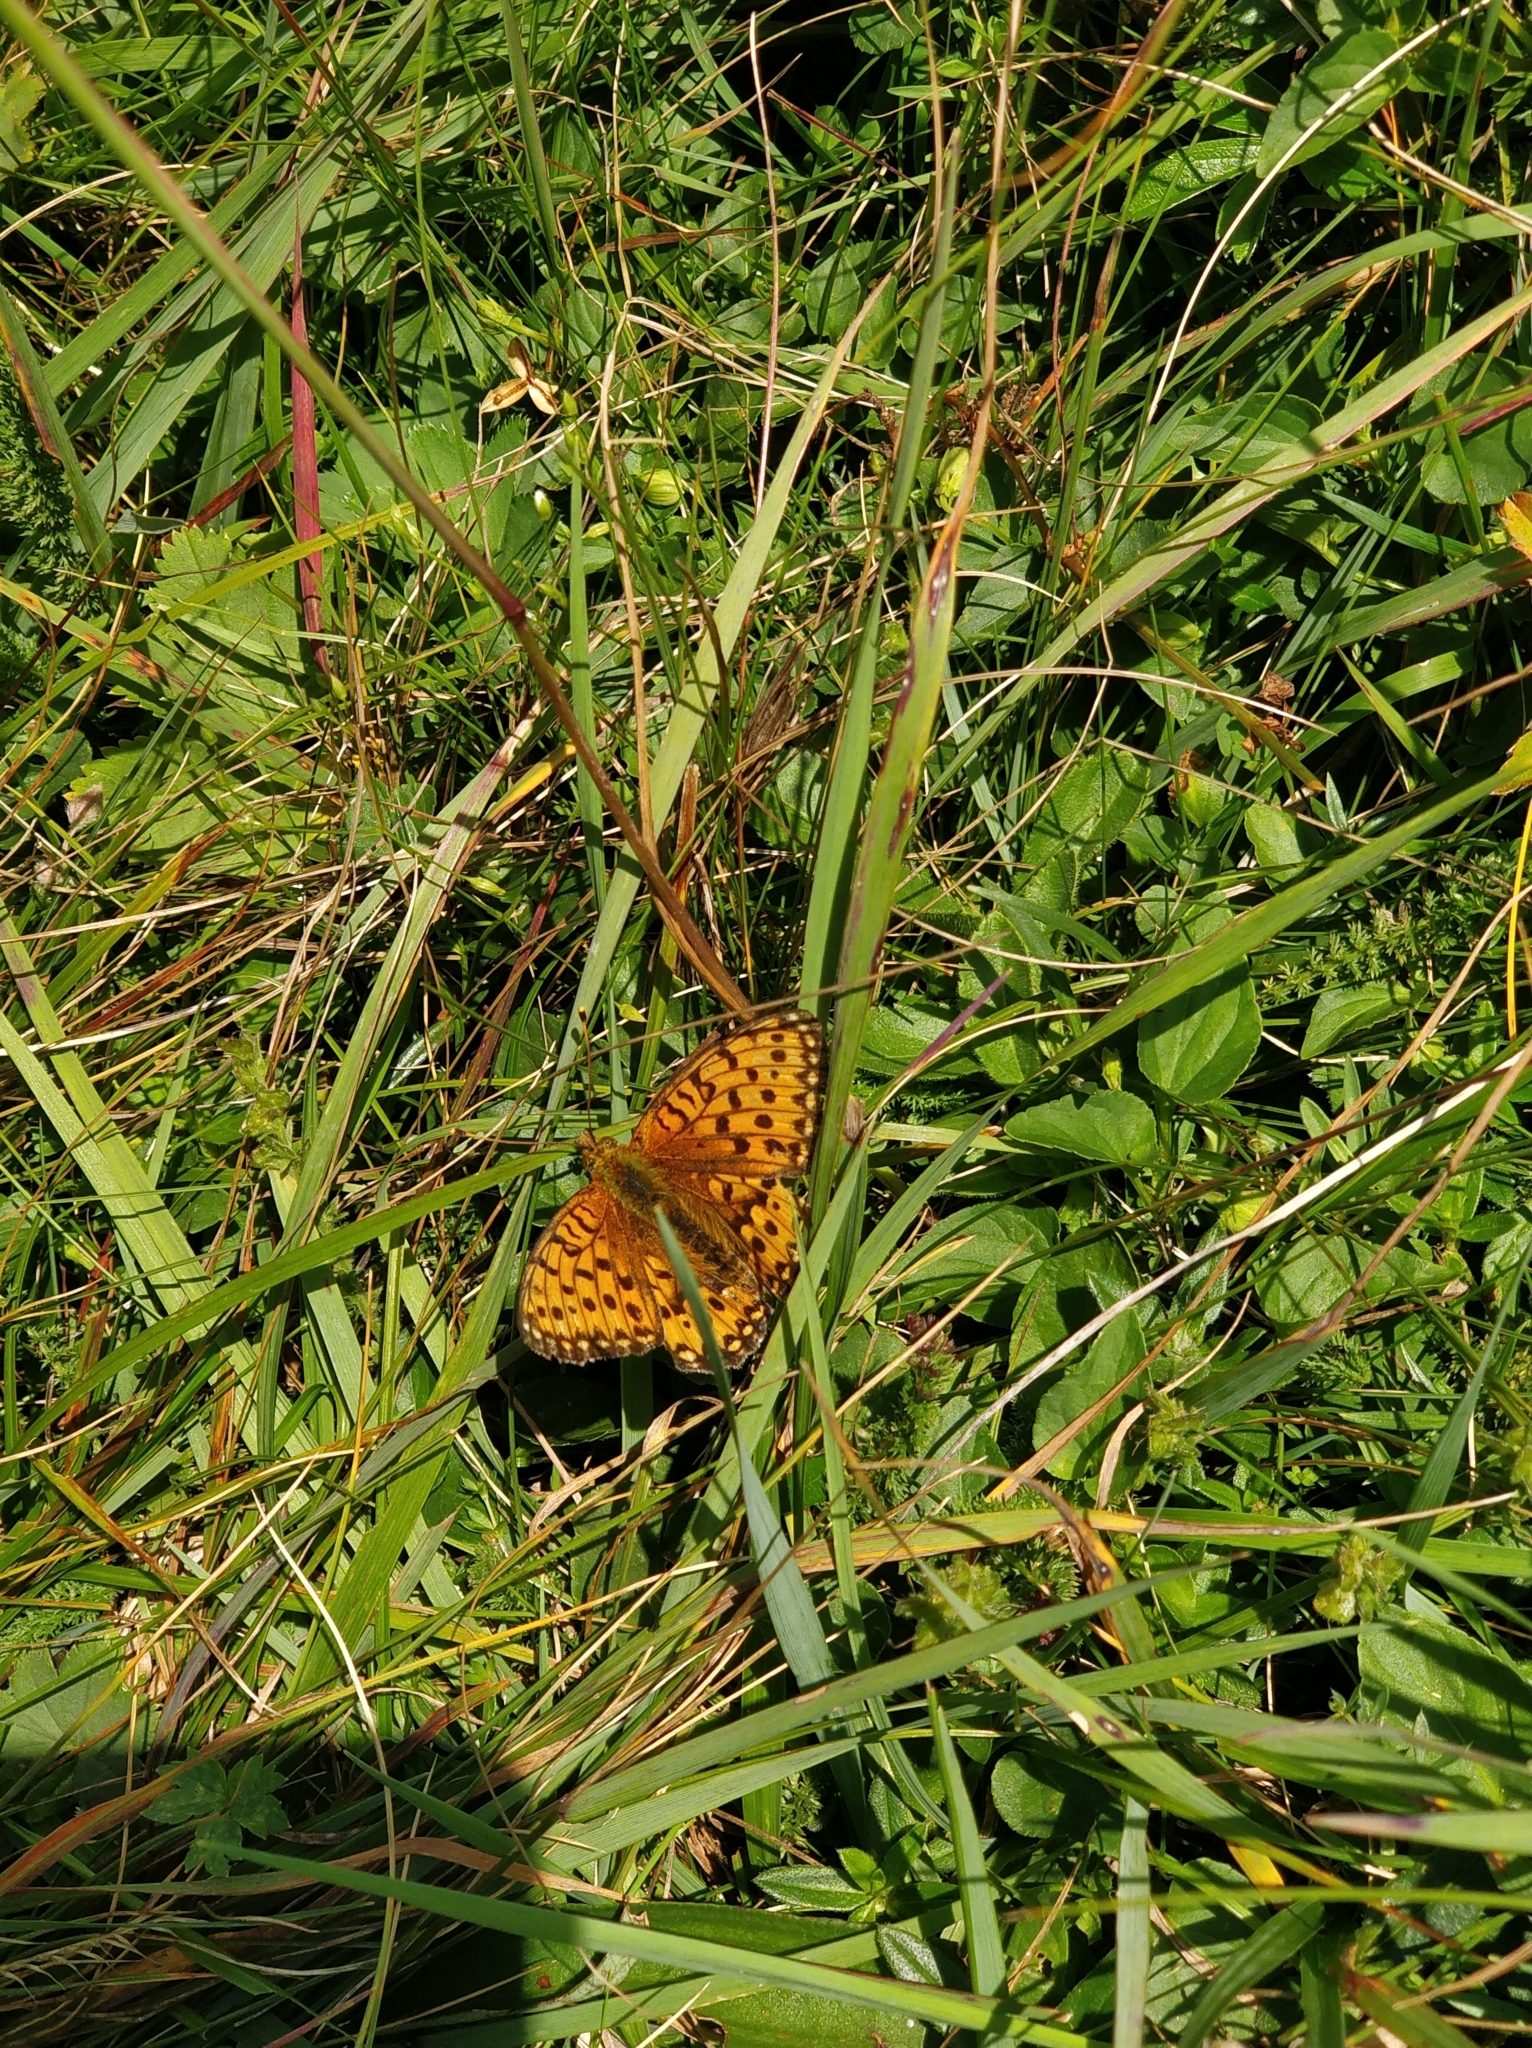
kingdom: Animalia
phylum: Arthropoda
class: Insecta
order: Lepidoptera
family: Nymphalidae
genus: Speyeria
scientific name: Speyeria aglaja
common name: Dark green fritillary
